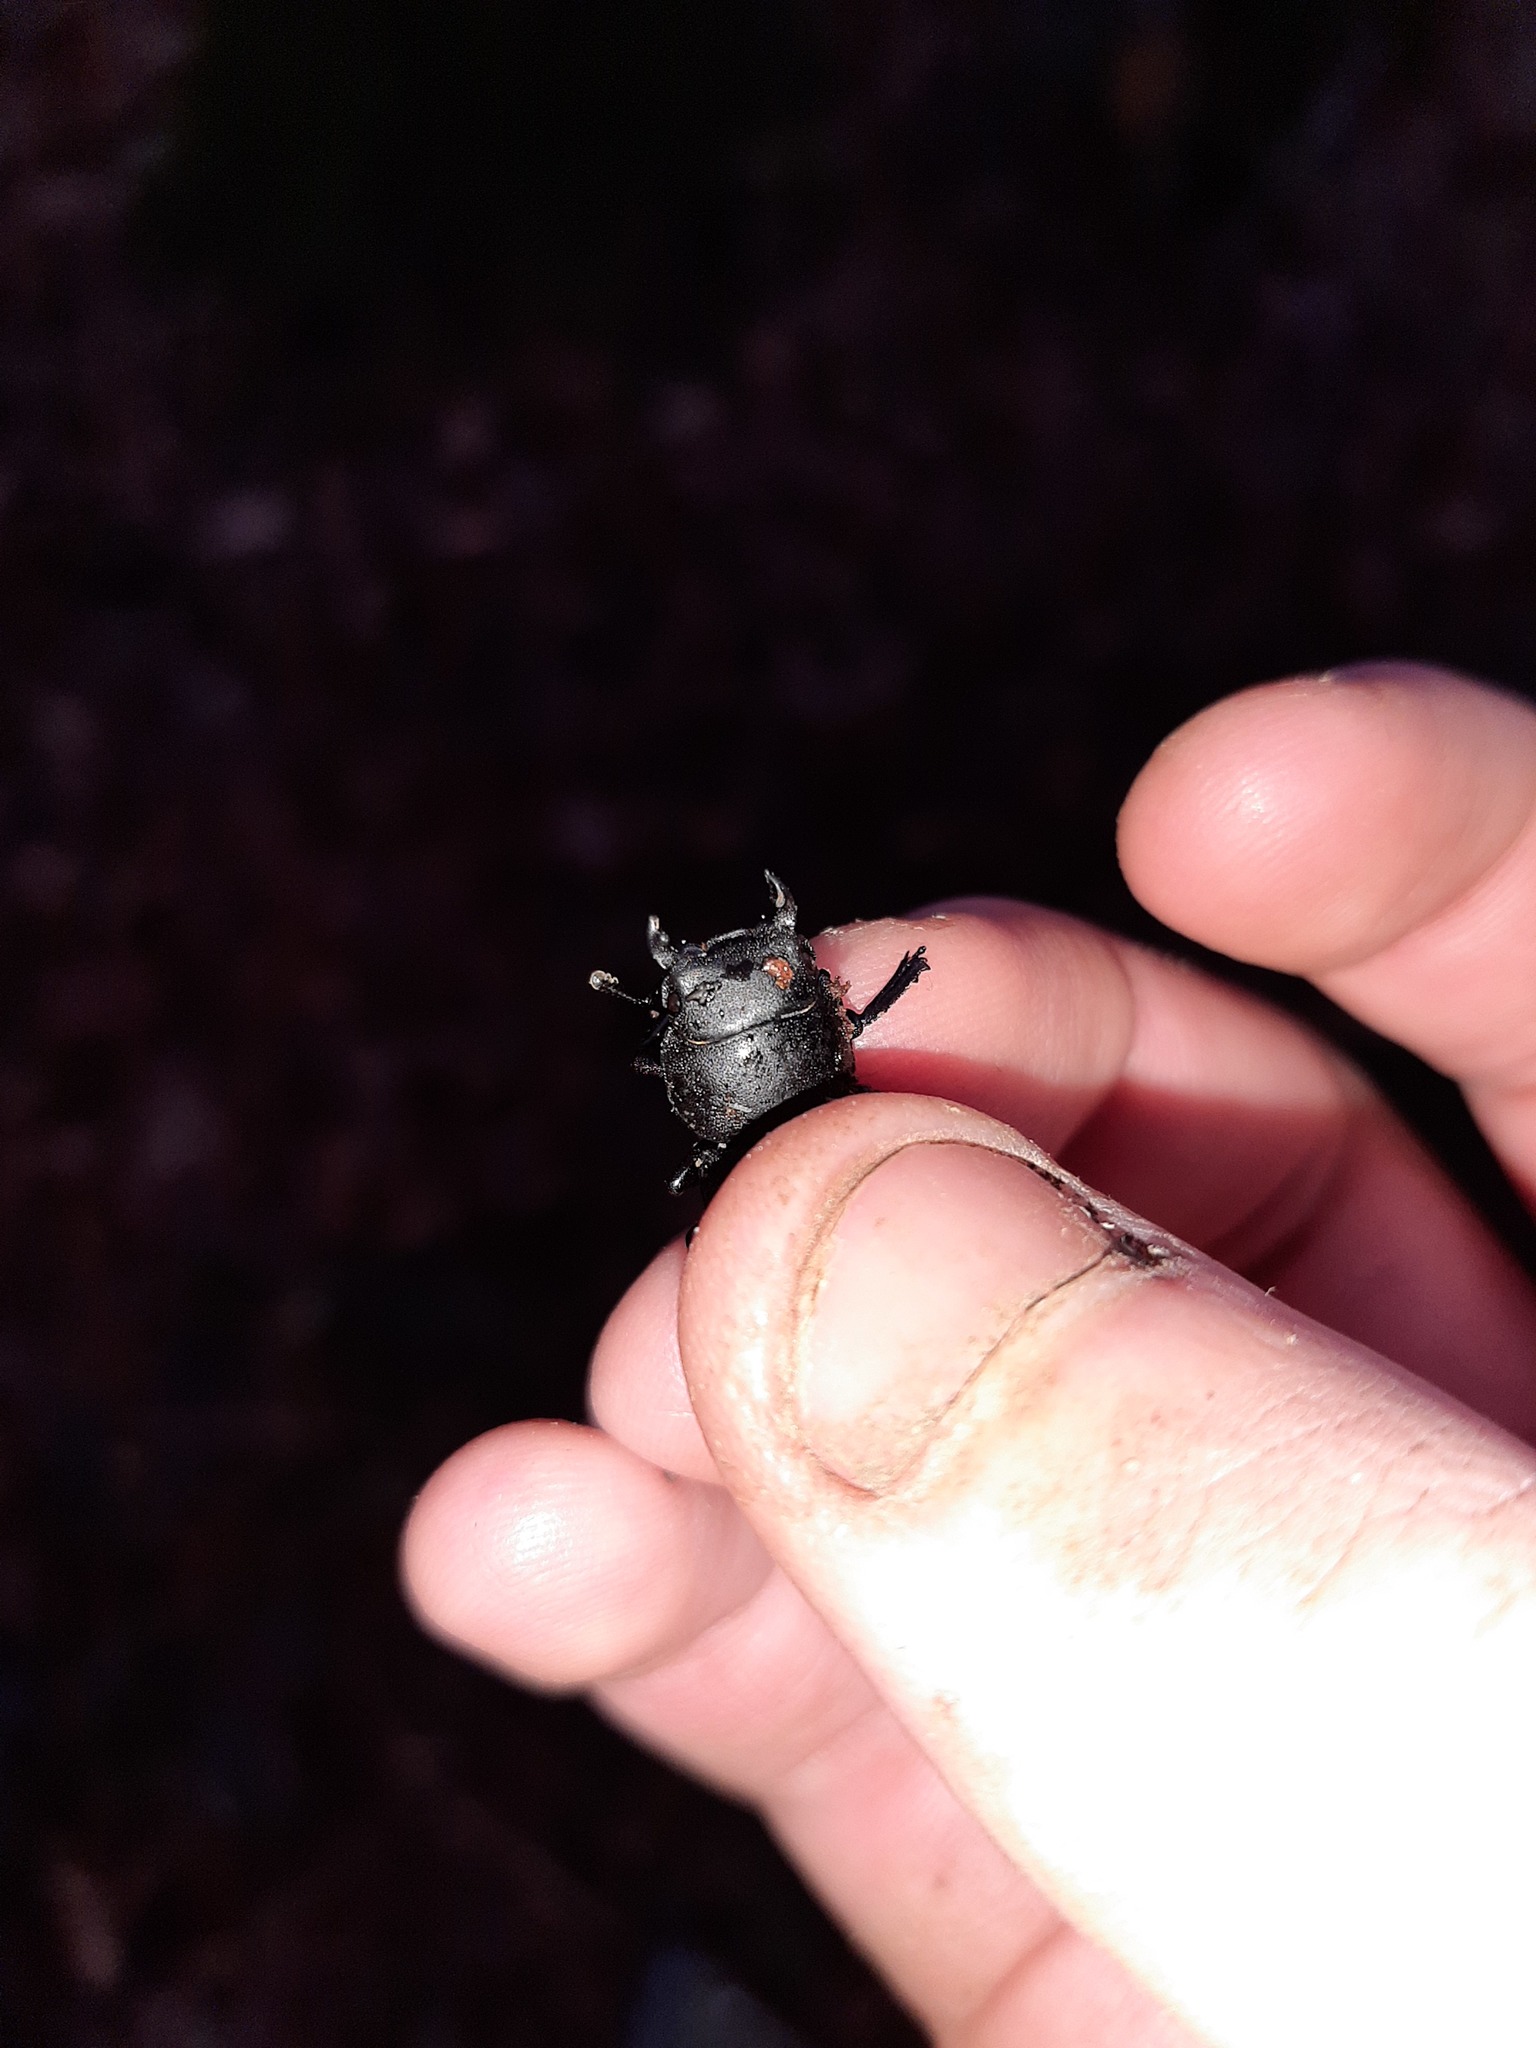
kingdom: Animalia
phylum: Arthropoda
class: Insecta
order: Coleoptera
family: Lucanidae
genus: Dorcus
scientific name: Dorcus parallelipipedus
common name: Lesser stag beetle
